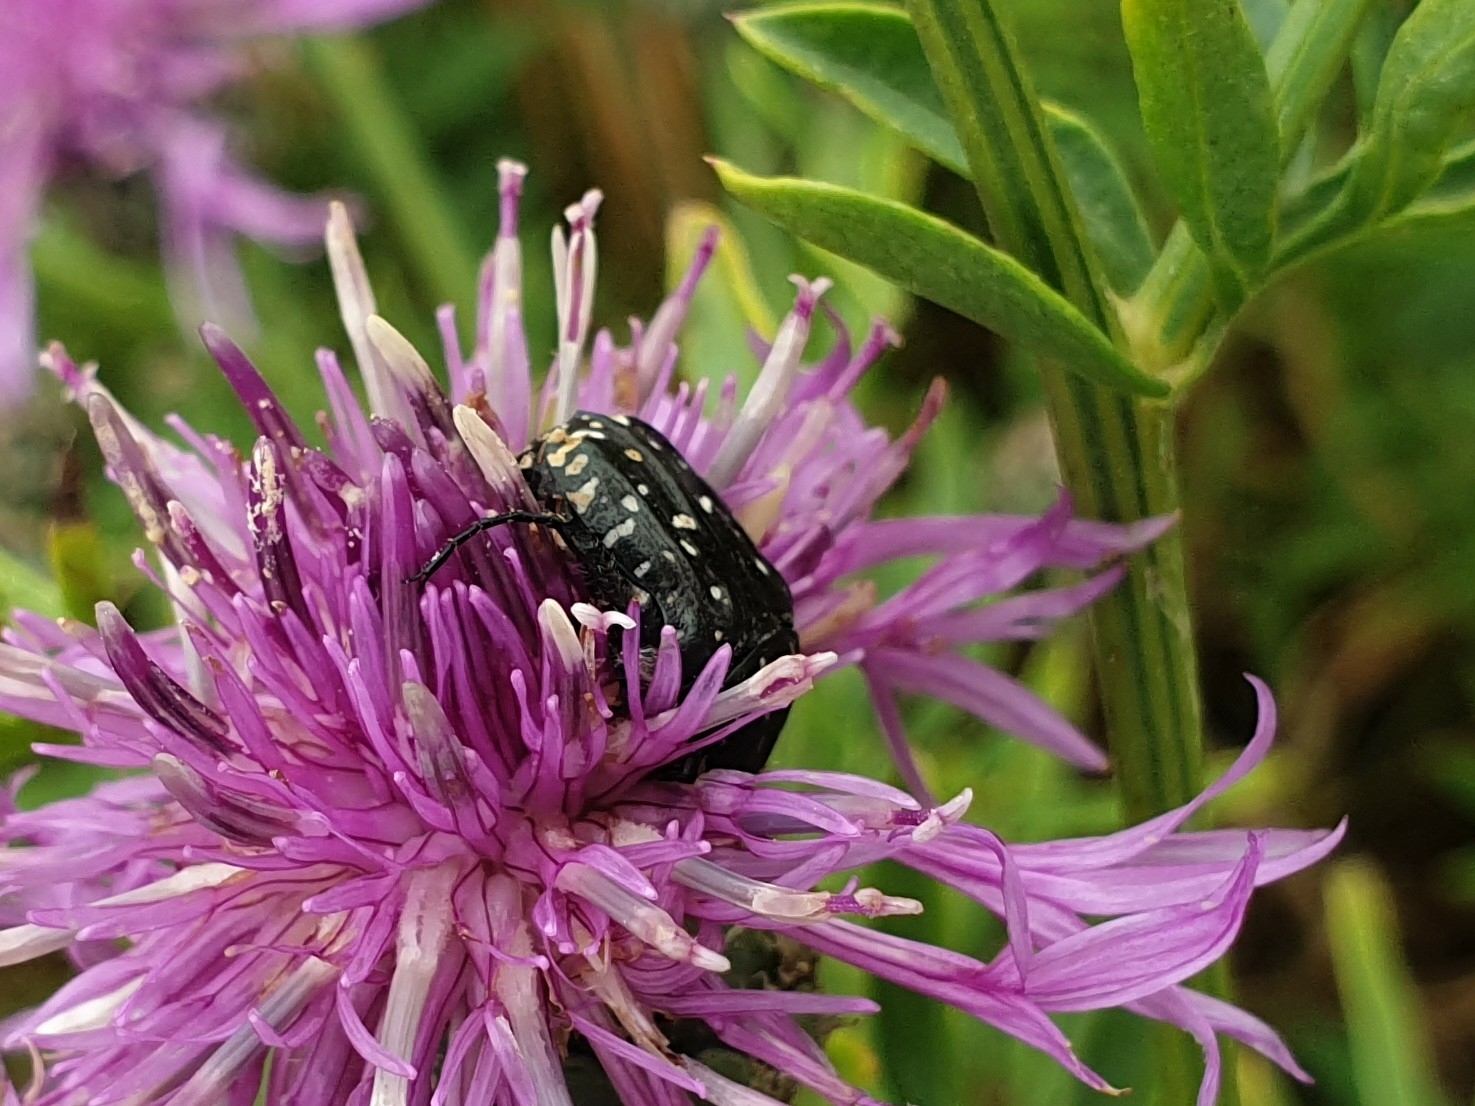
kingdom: Animalia
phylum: Arthropoda
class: Insecta
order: Coleoptera
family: Scarabaeidae
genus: Oxythyrea
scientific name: Oxythyrea funesta
